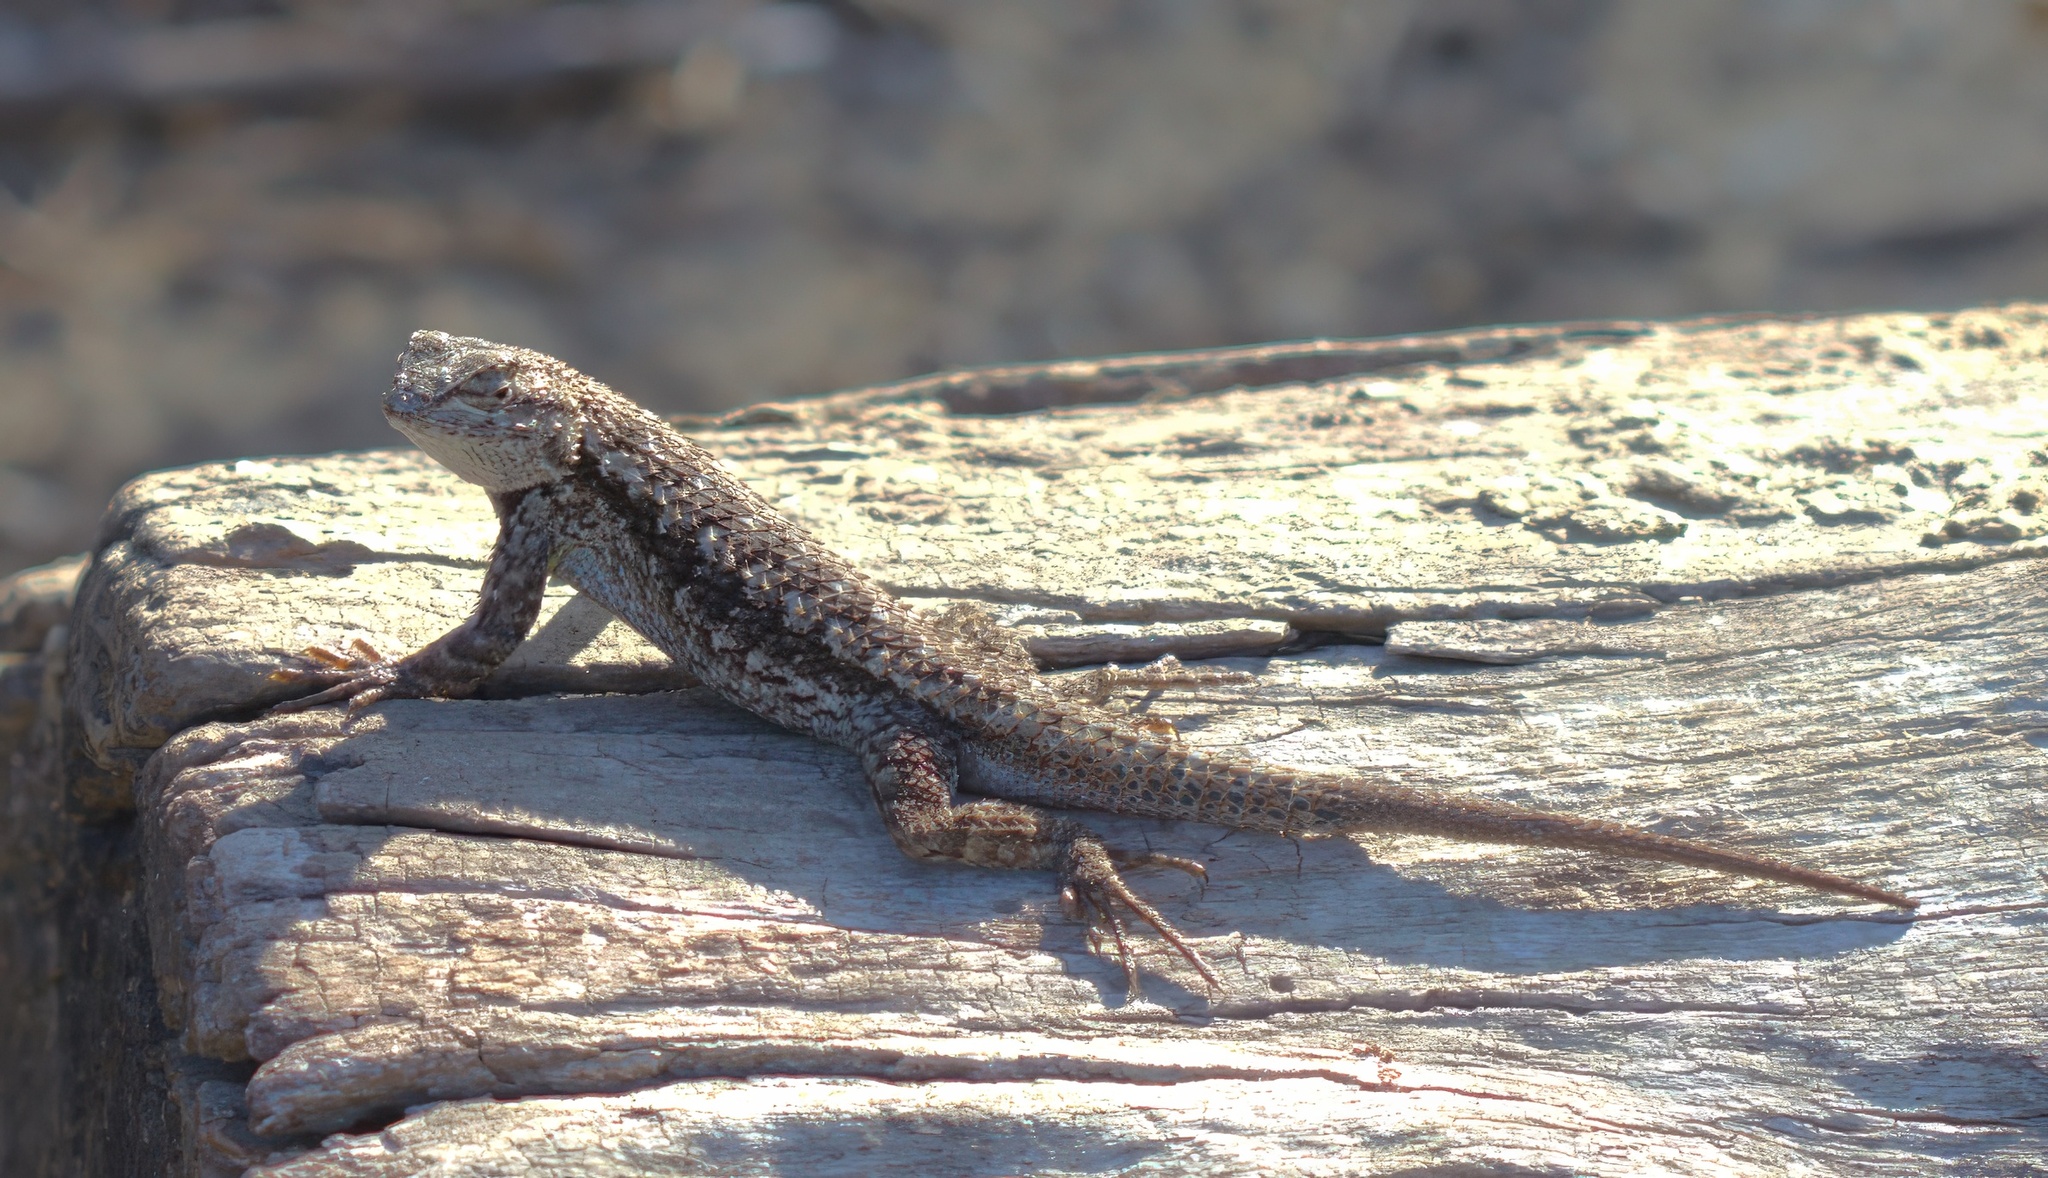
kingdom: Animalia
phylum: Chordata
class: Squamata
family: Phrynosomatidae
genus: Sceloporus
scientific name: Sceloporus occidentalis
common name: Western fence lizard
